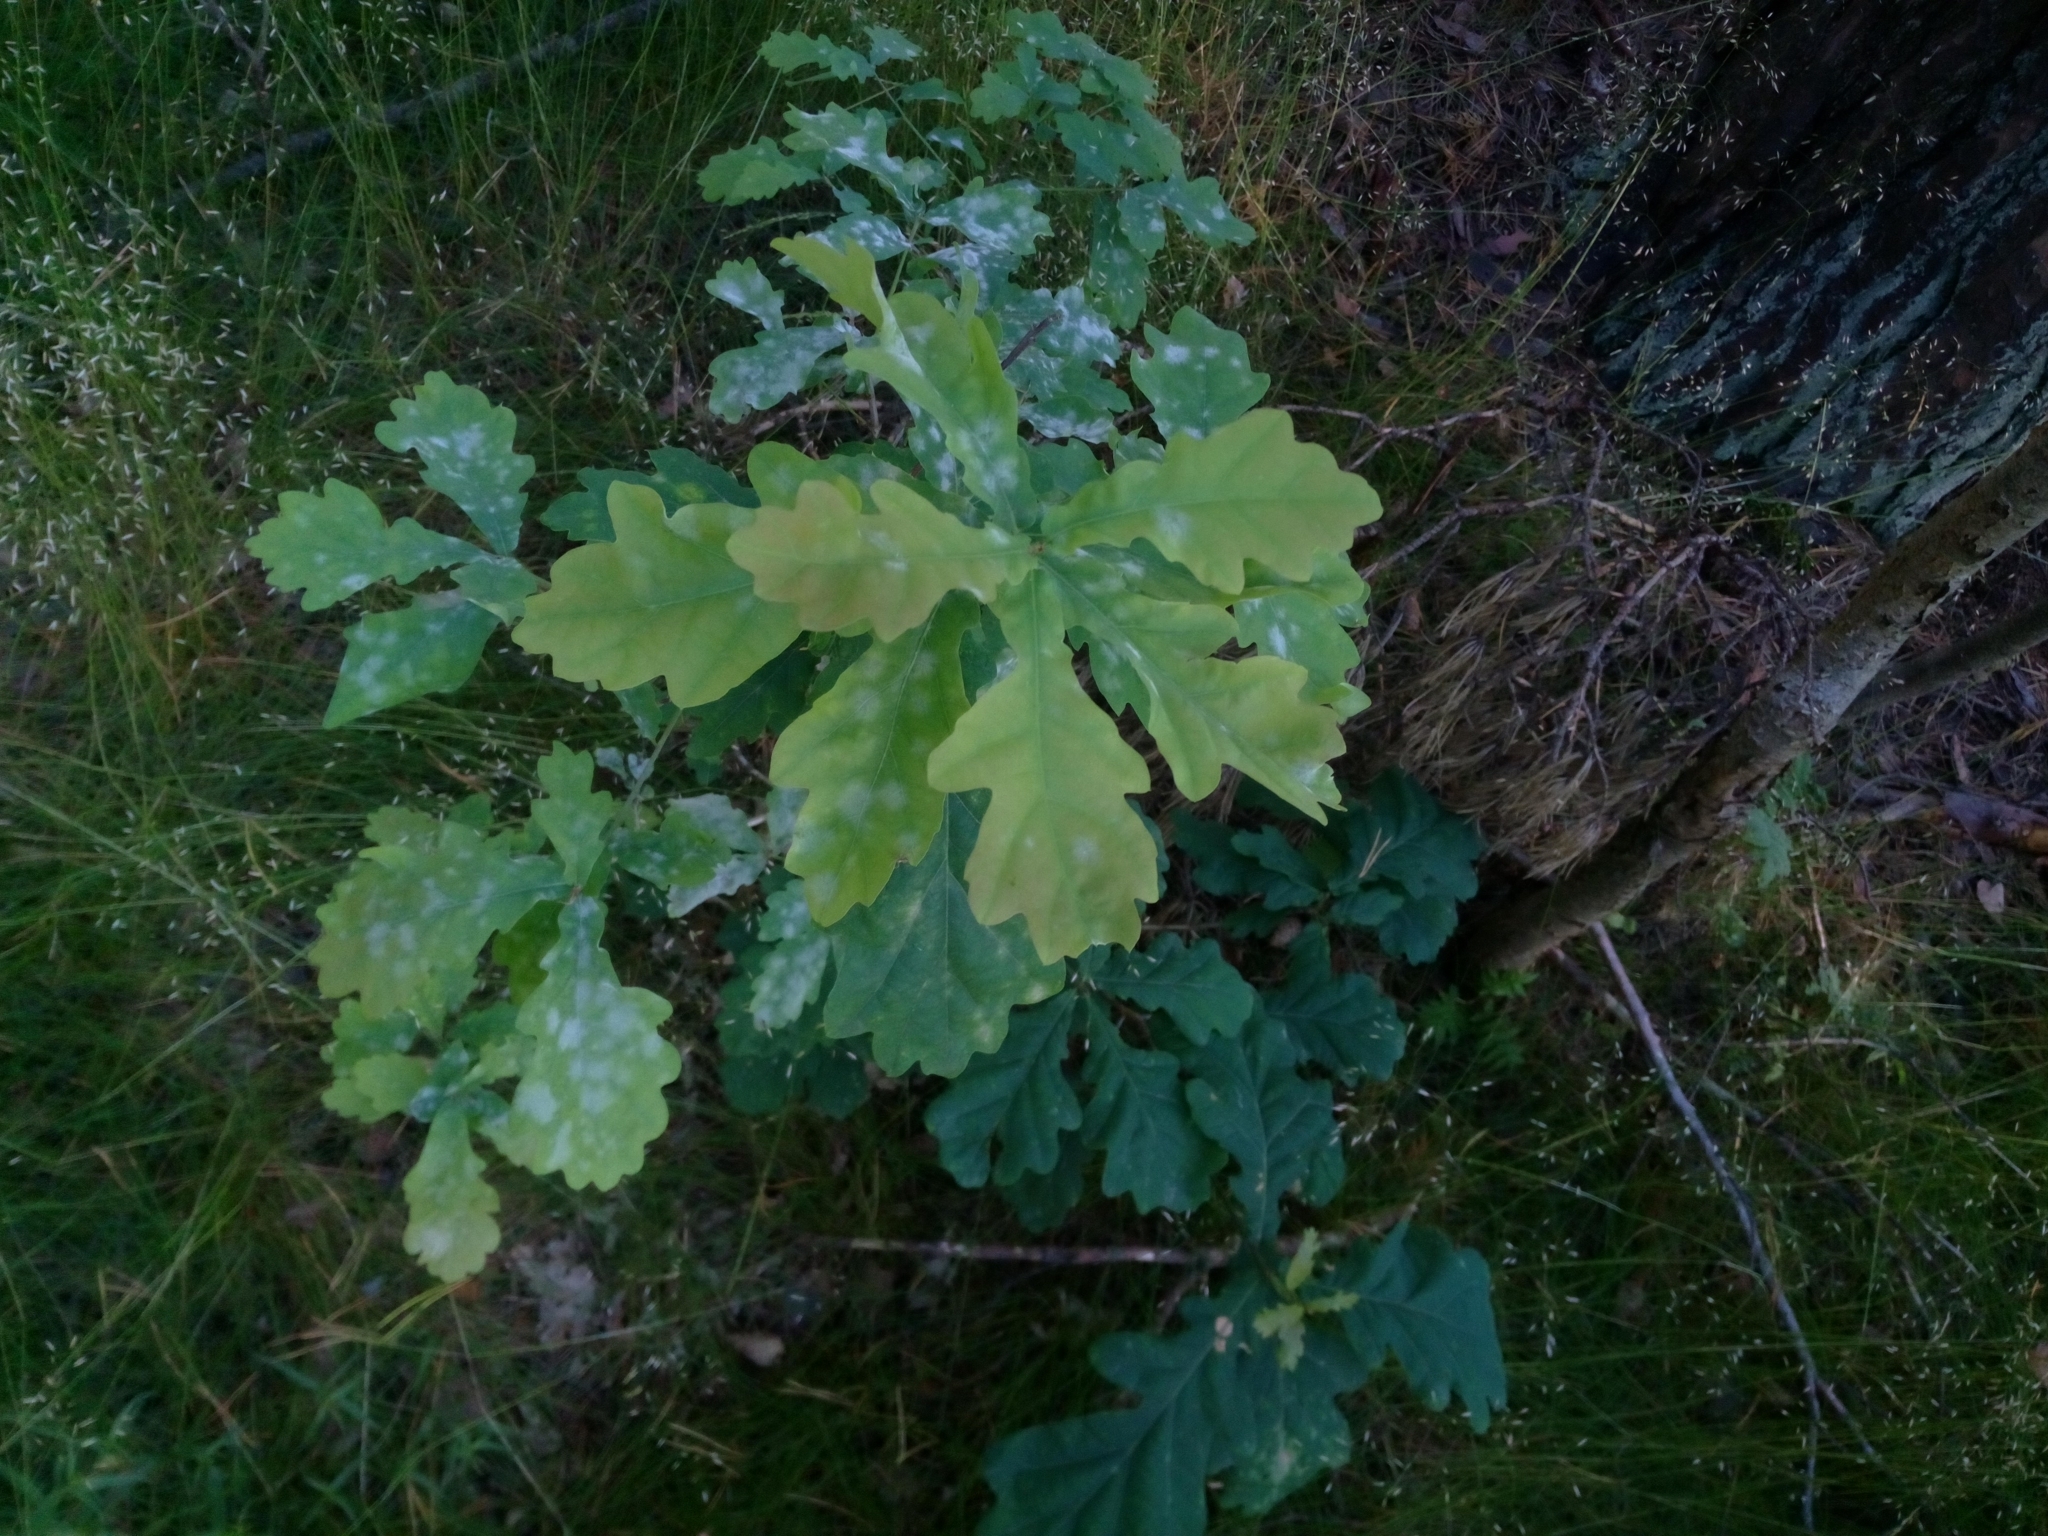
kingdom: Plantae
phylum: Tracheophyta
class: Magnoliopsida
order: Fagales
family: Fagaceae
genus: Quercus
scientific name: Quercus robur
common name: Pedunculate oak
